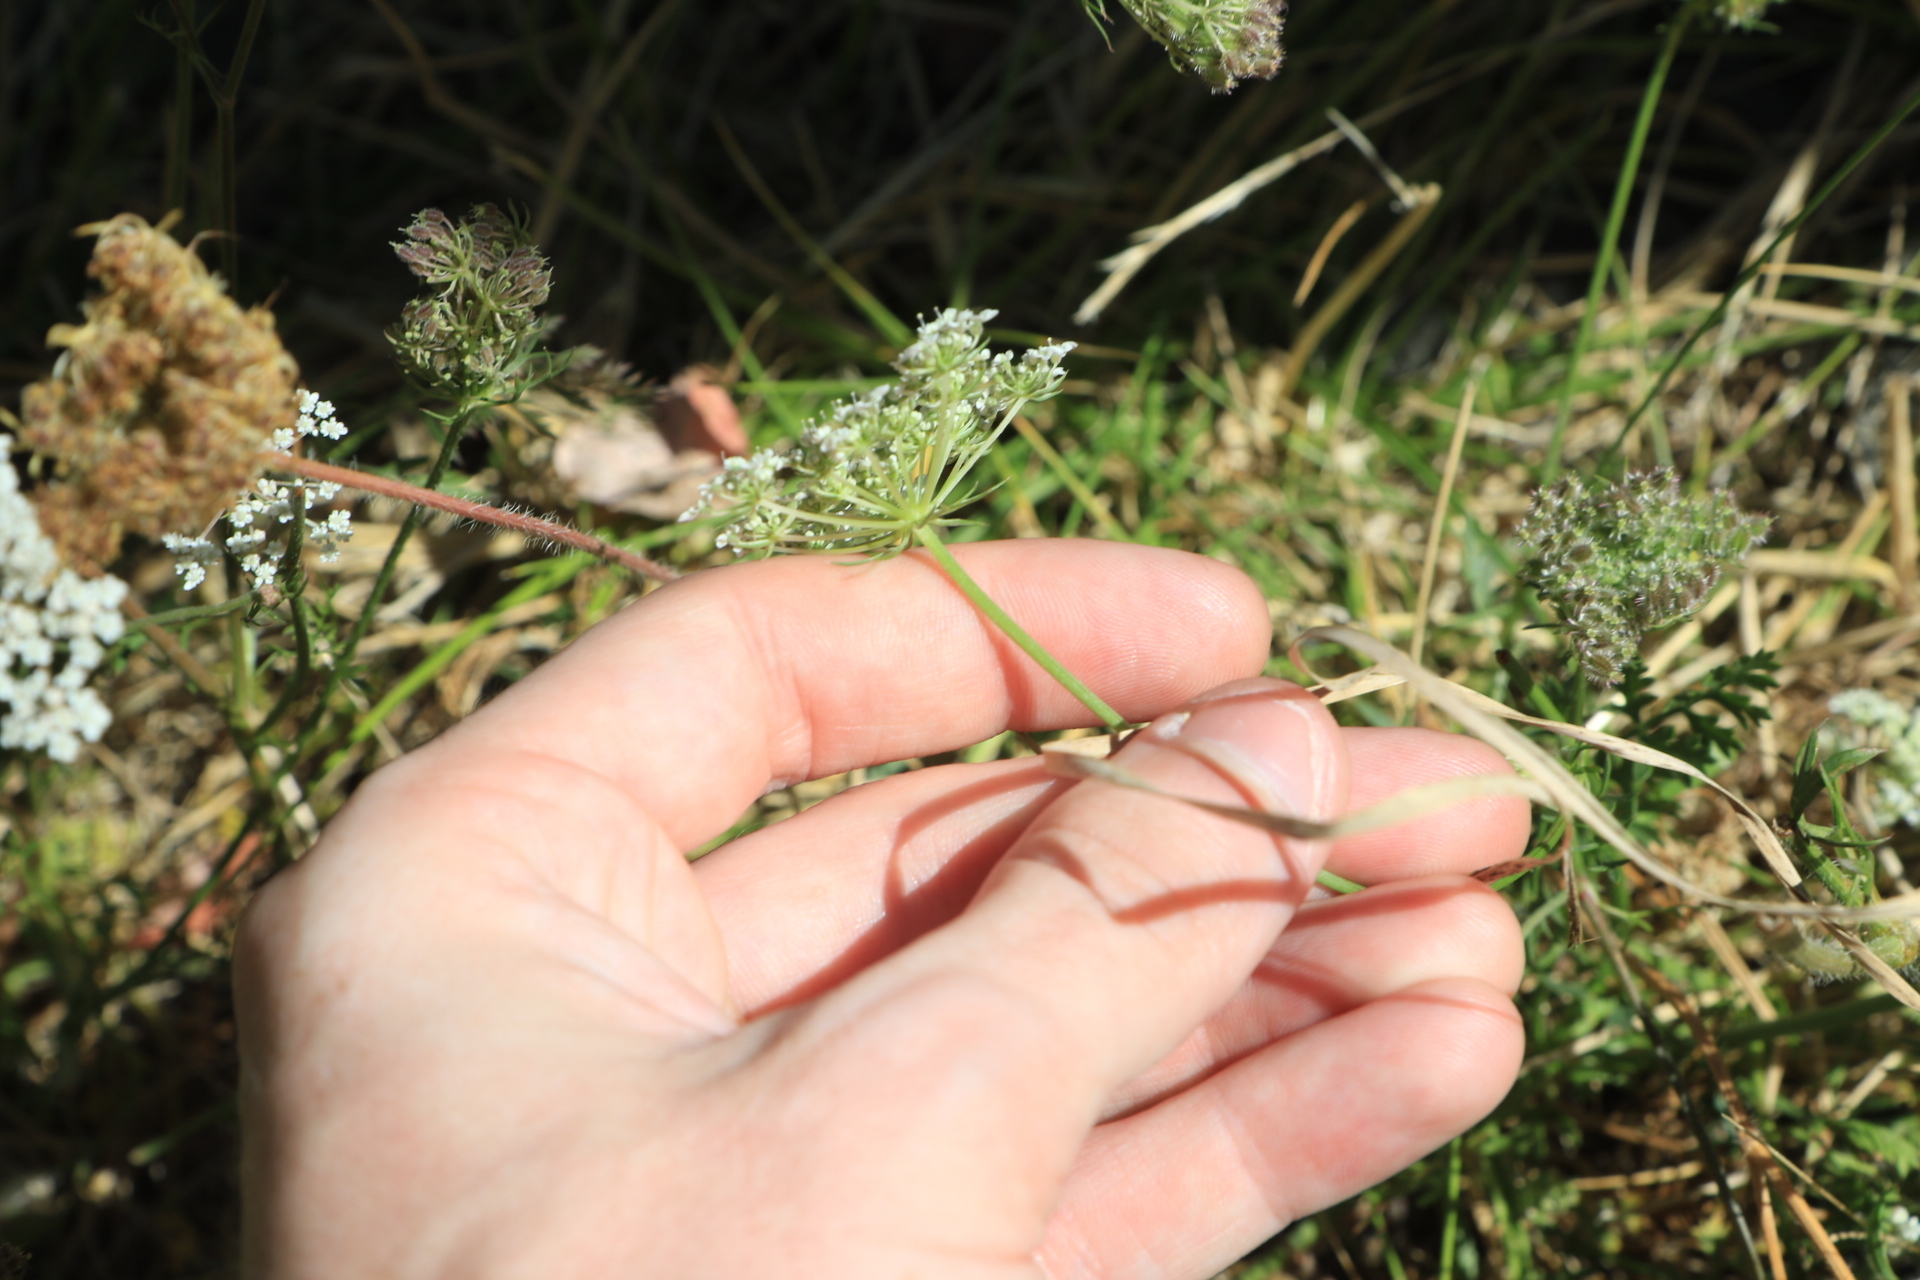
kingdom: Plantae
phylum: Tracheophyta
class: Magnoliopsida
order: Apiales
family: Apiaceae
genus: Daucus
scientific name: Daucus carota
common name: Wild carrot
